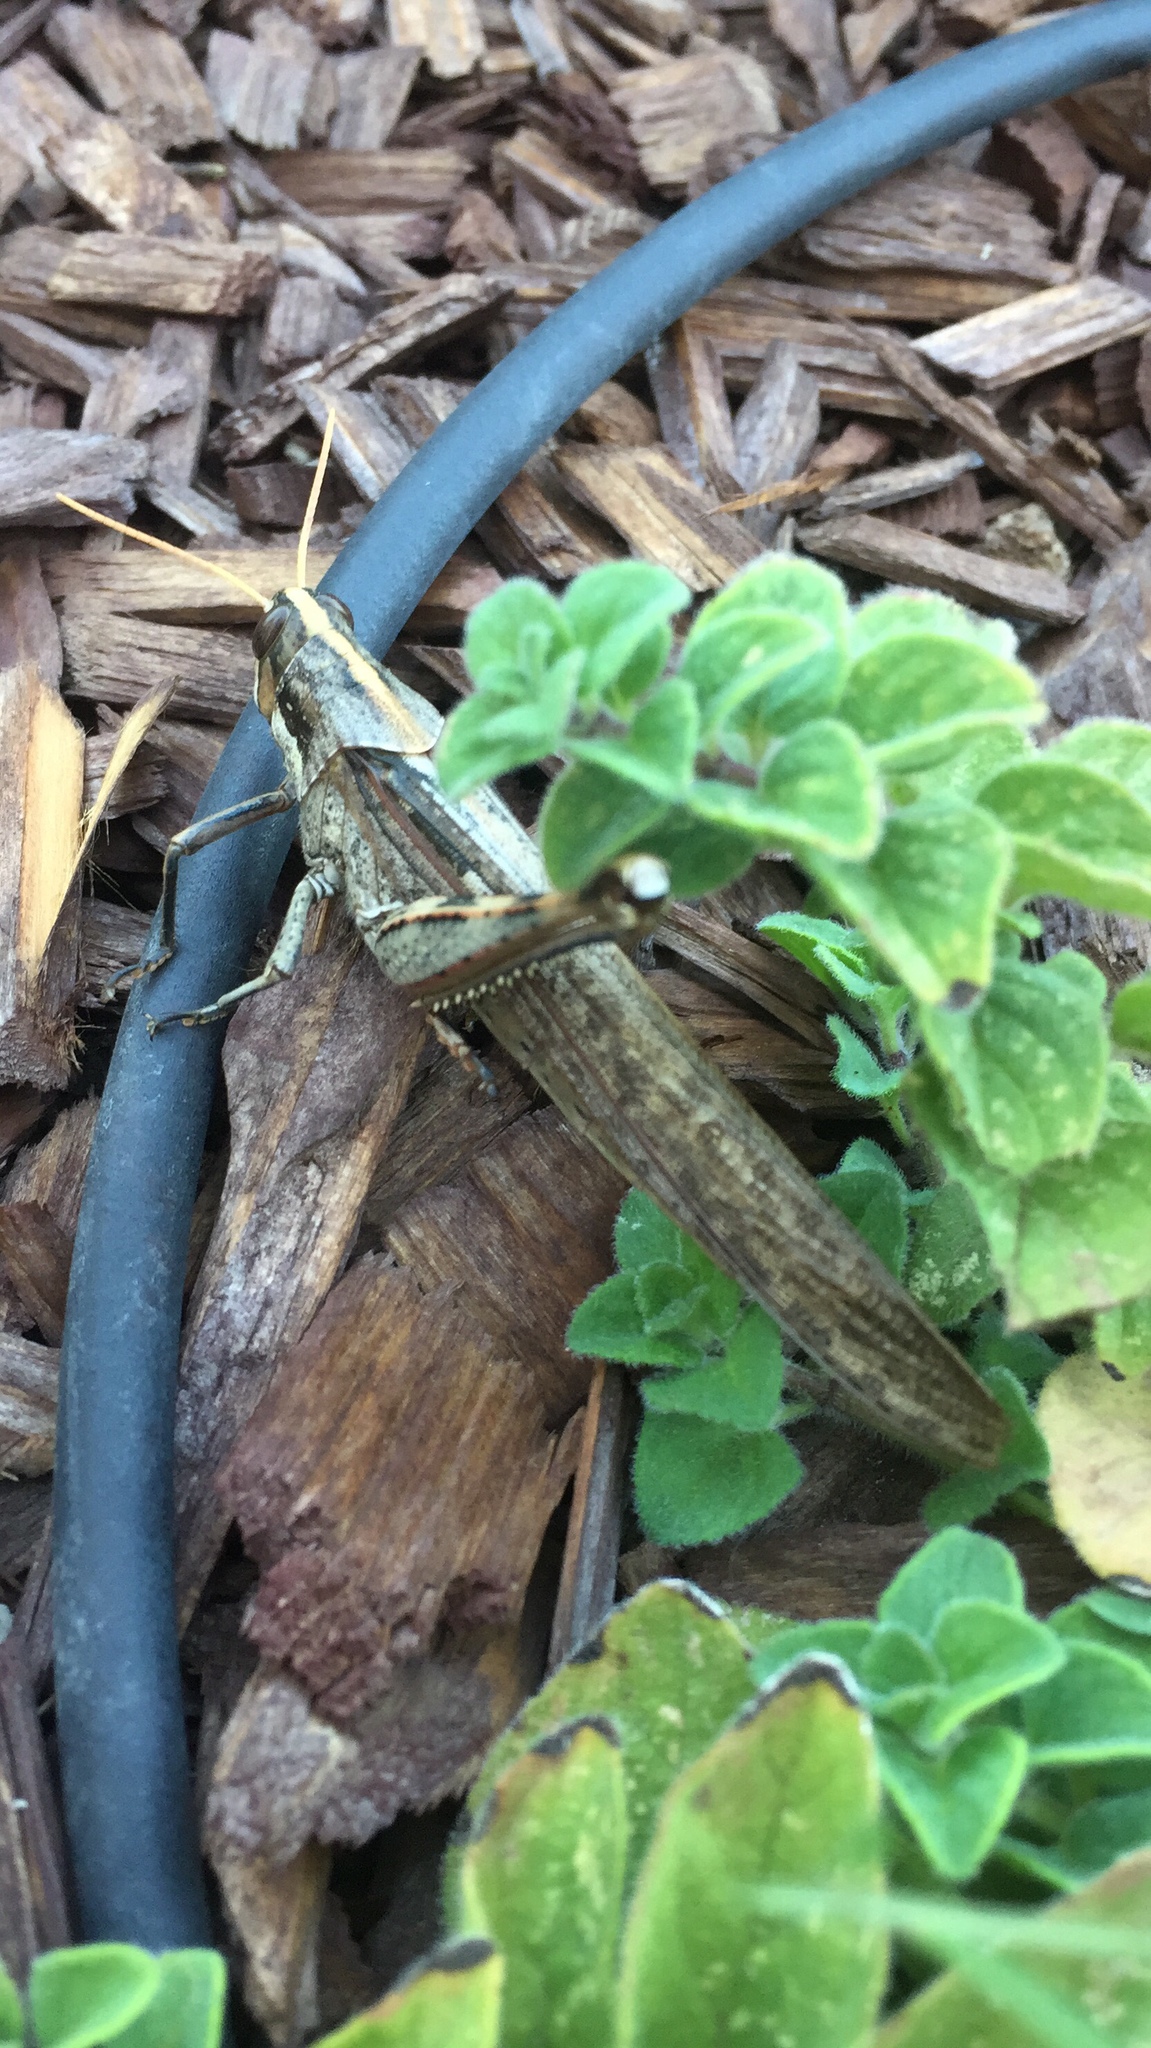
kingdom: Animalia
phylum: Arthropoda
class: Insecta
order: Orthoptera
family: Acrididae
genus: Schistocerca
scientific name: Schistocerca nitens
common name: Vagrant grasshopper
